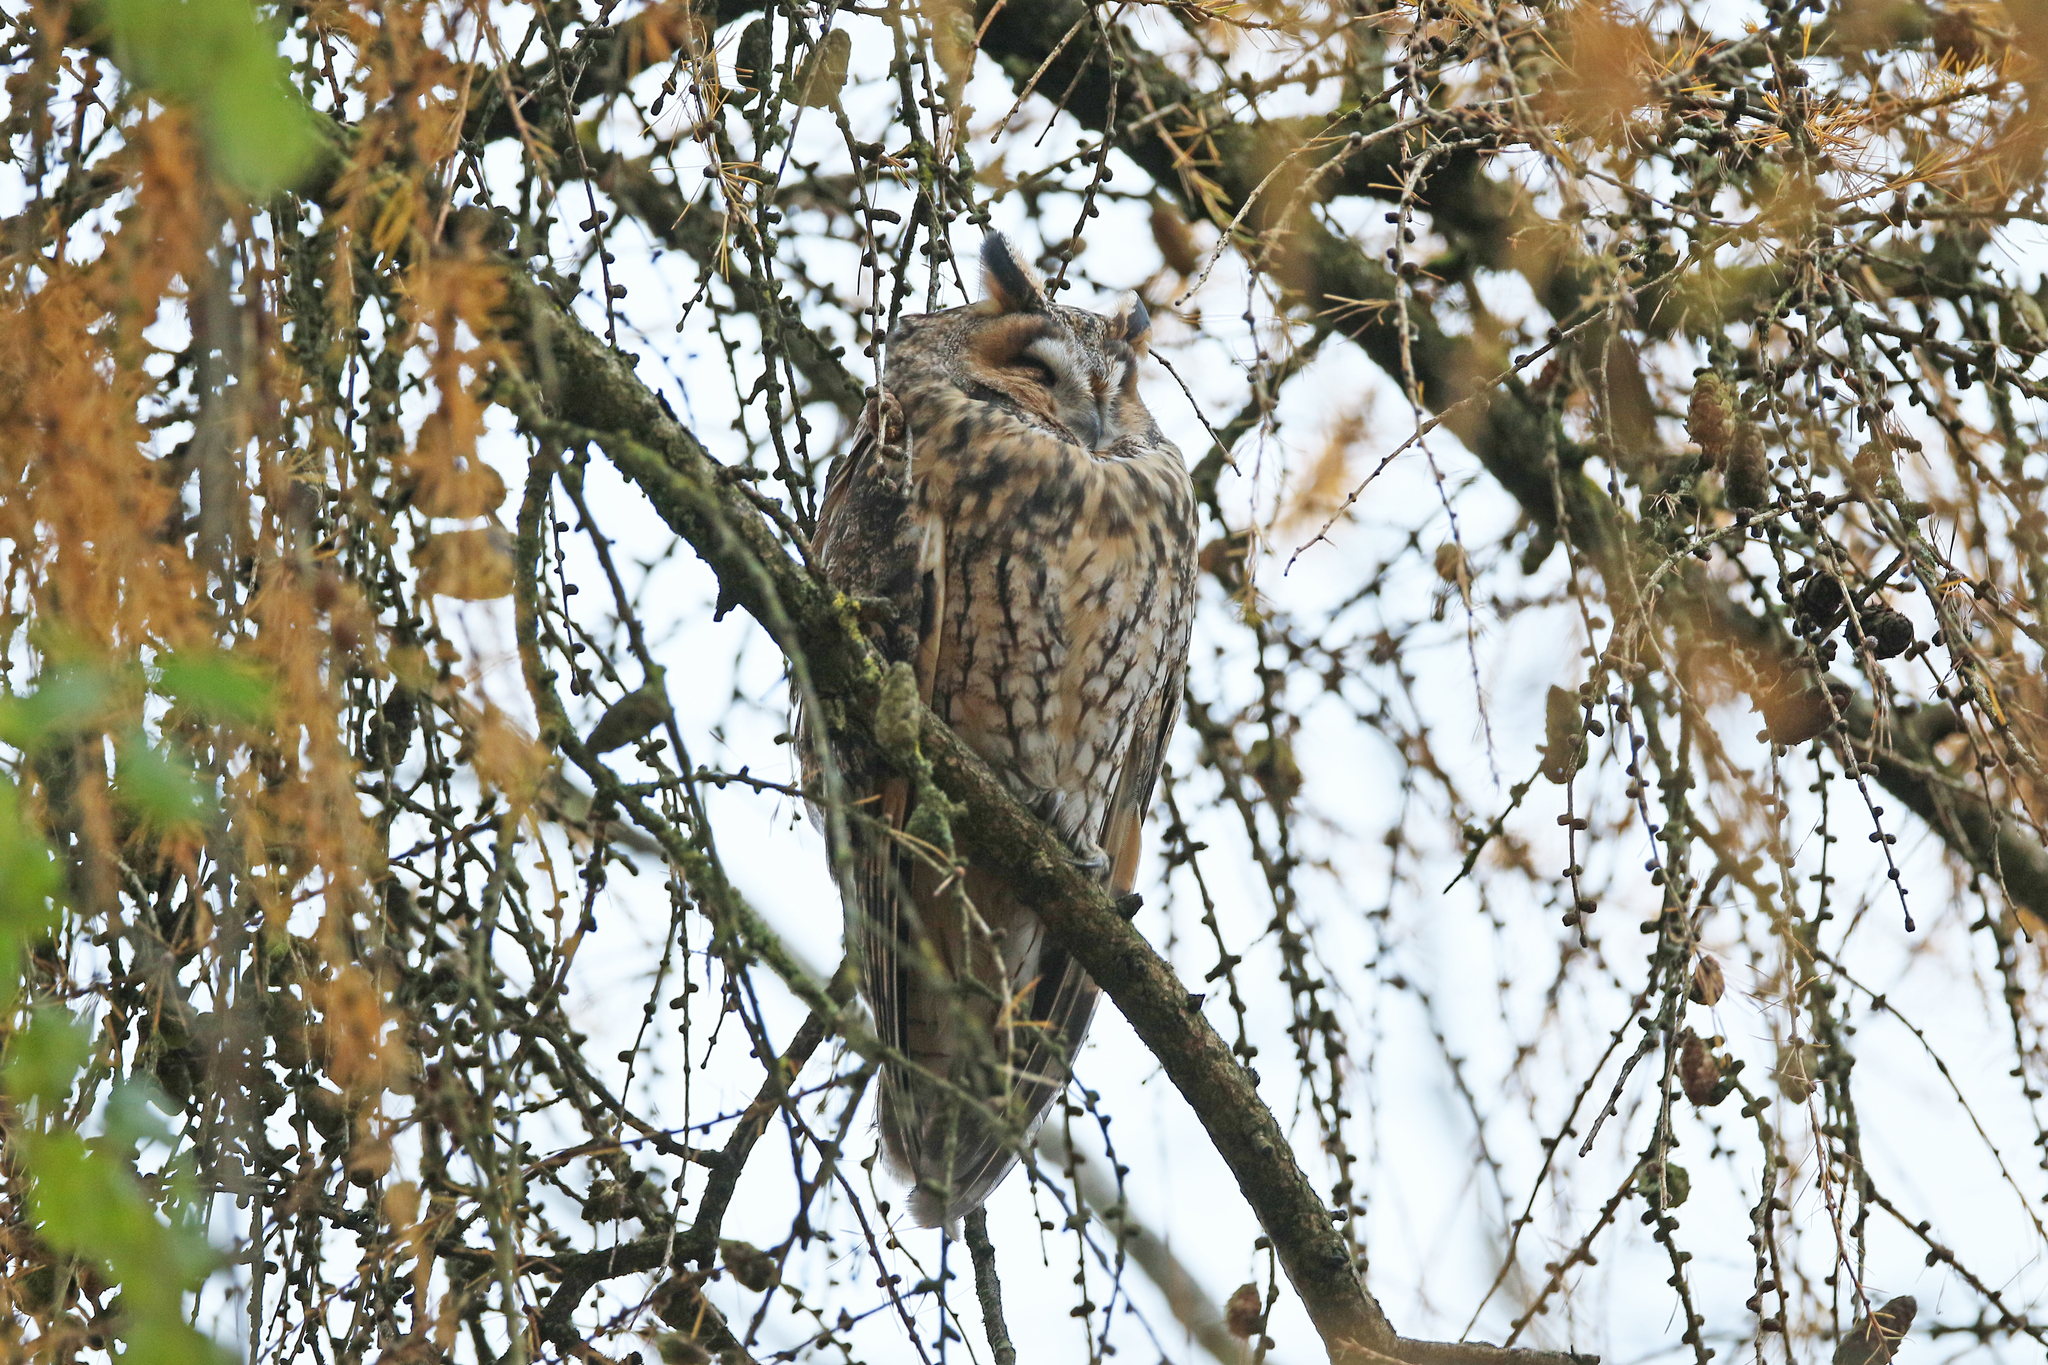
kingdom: Animalia
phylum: Chordata
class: Aves
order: Strigiformes
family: Strigidae
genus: Asio
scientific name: Asio otus
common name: Long-eared owl
